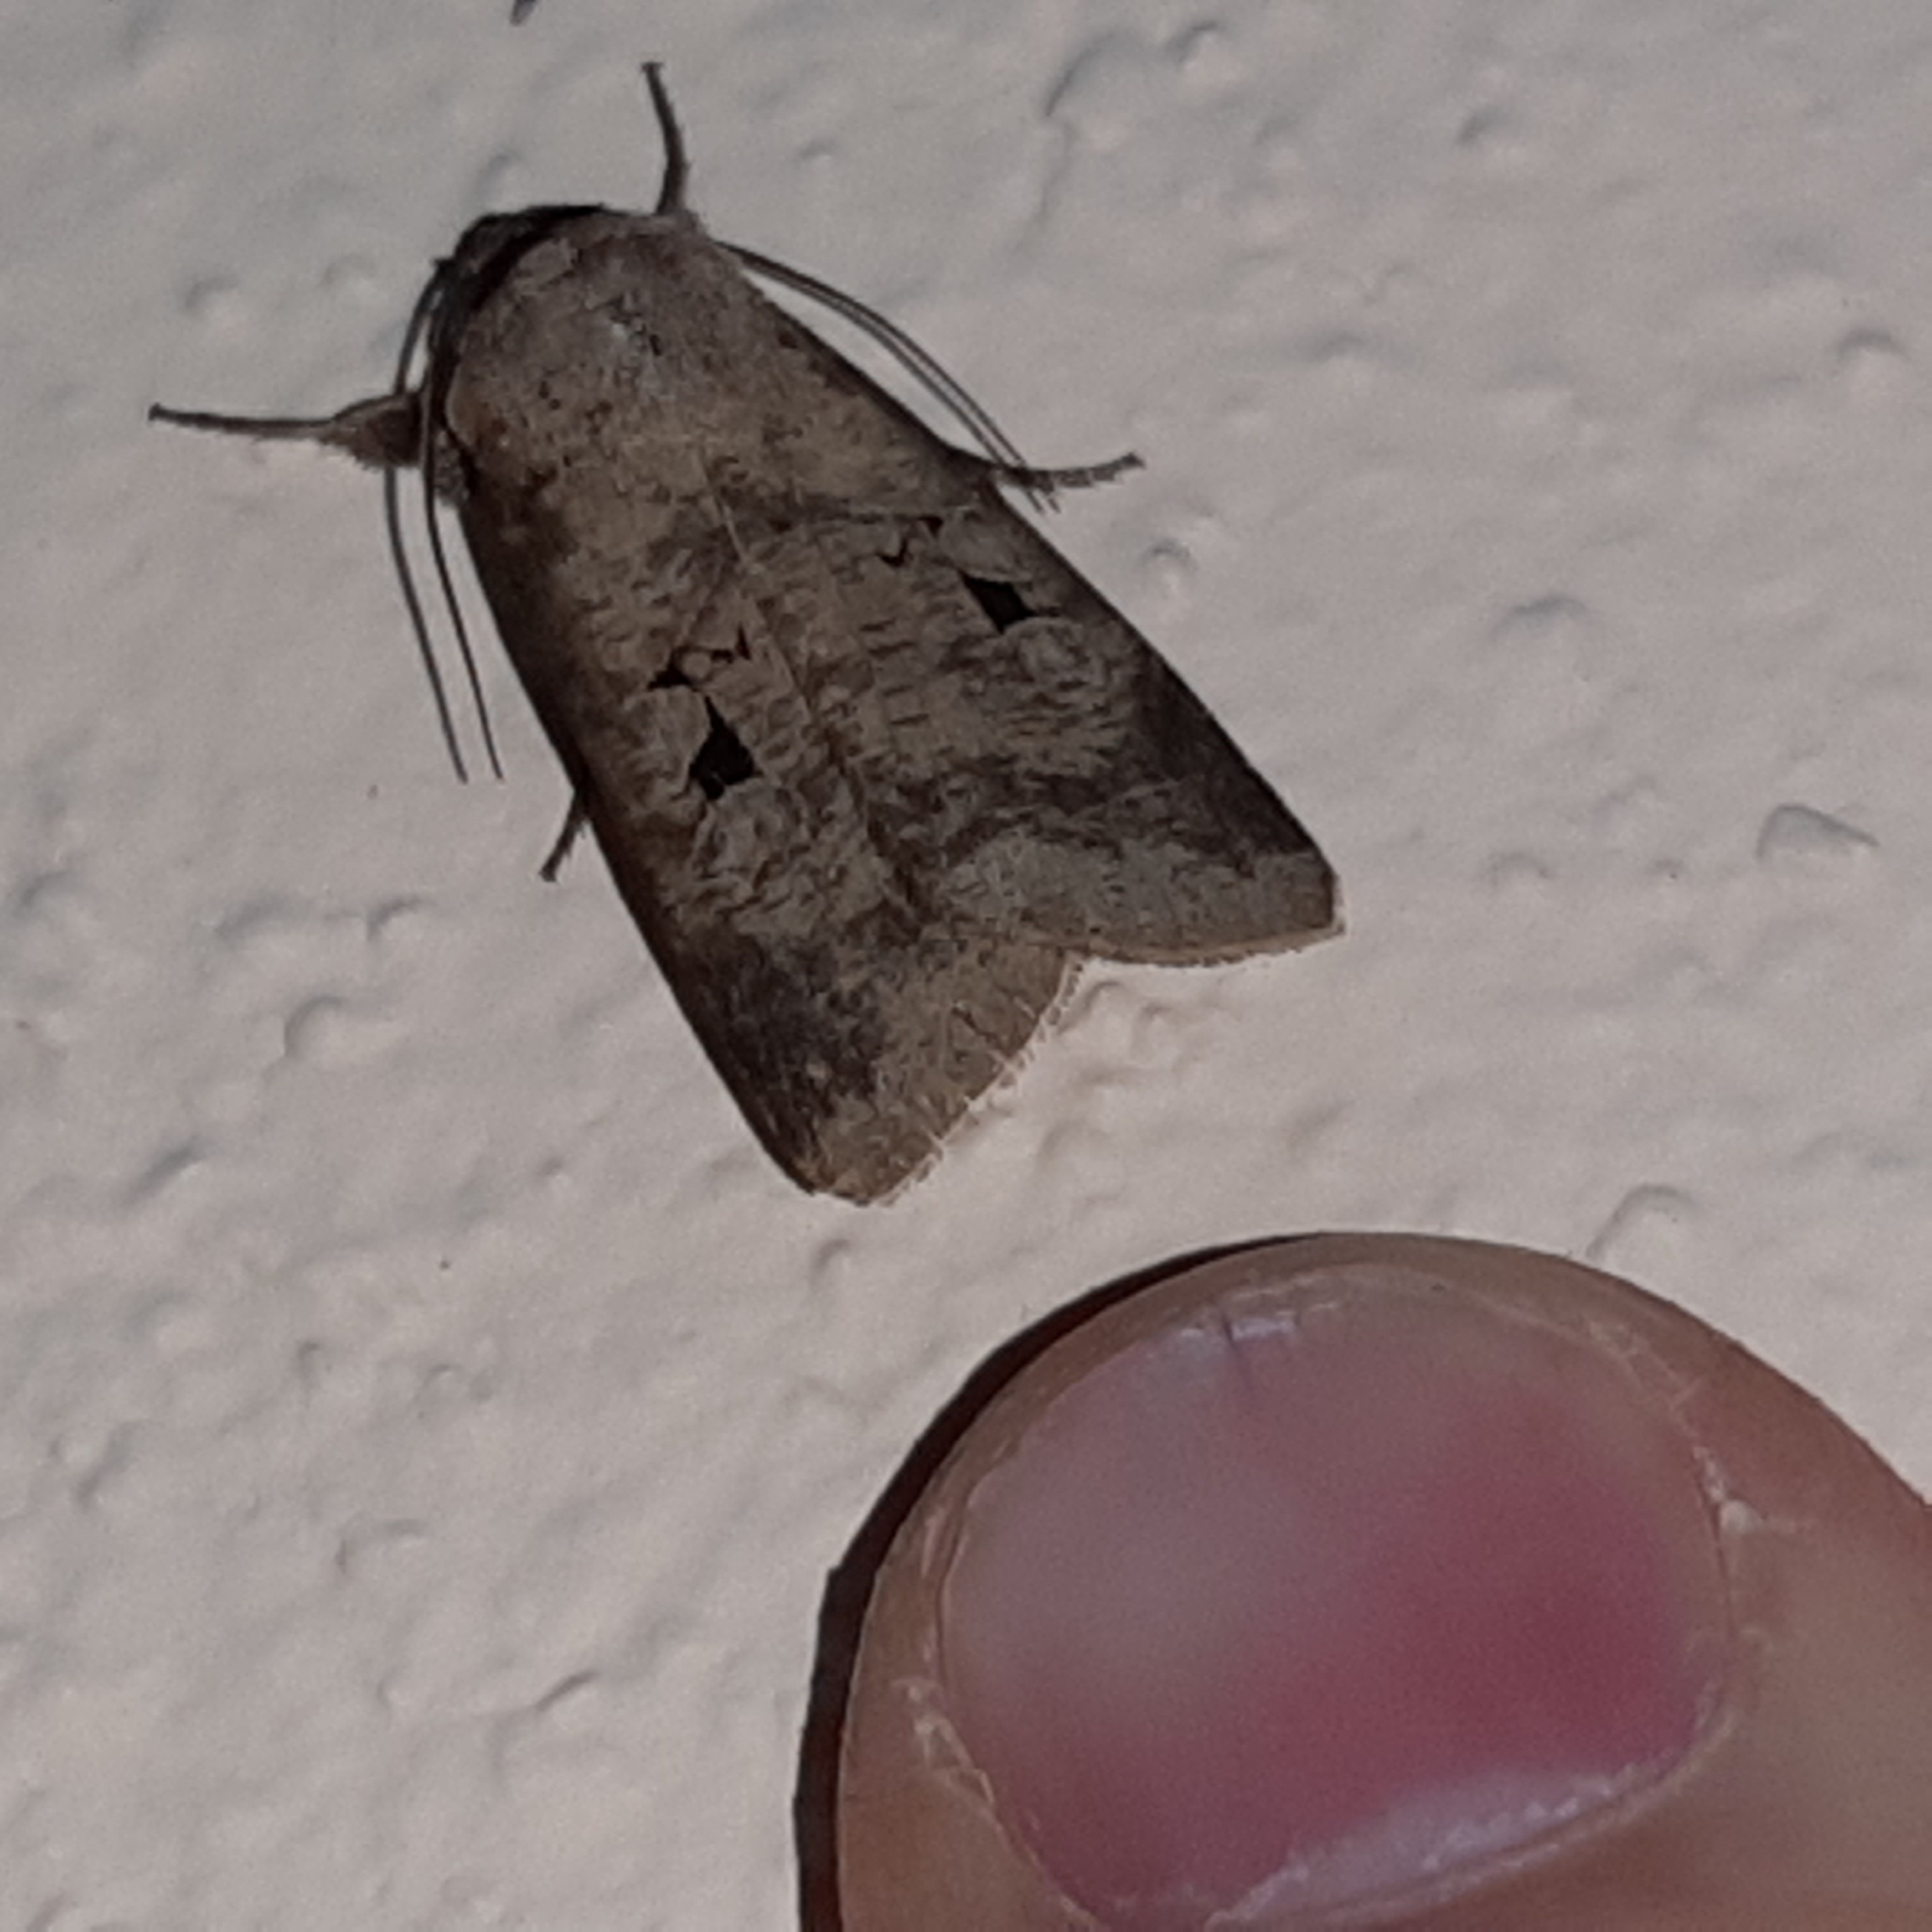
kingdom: Animalia
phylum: Arthropoda
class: Insecta
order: Lepidoptera
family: Noctuidae
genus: Praina
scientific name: Praina
